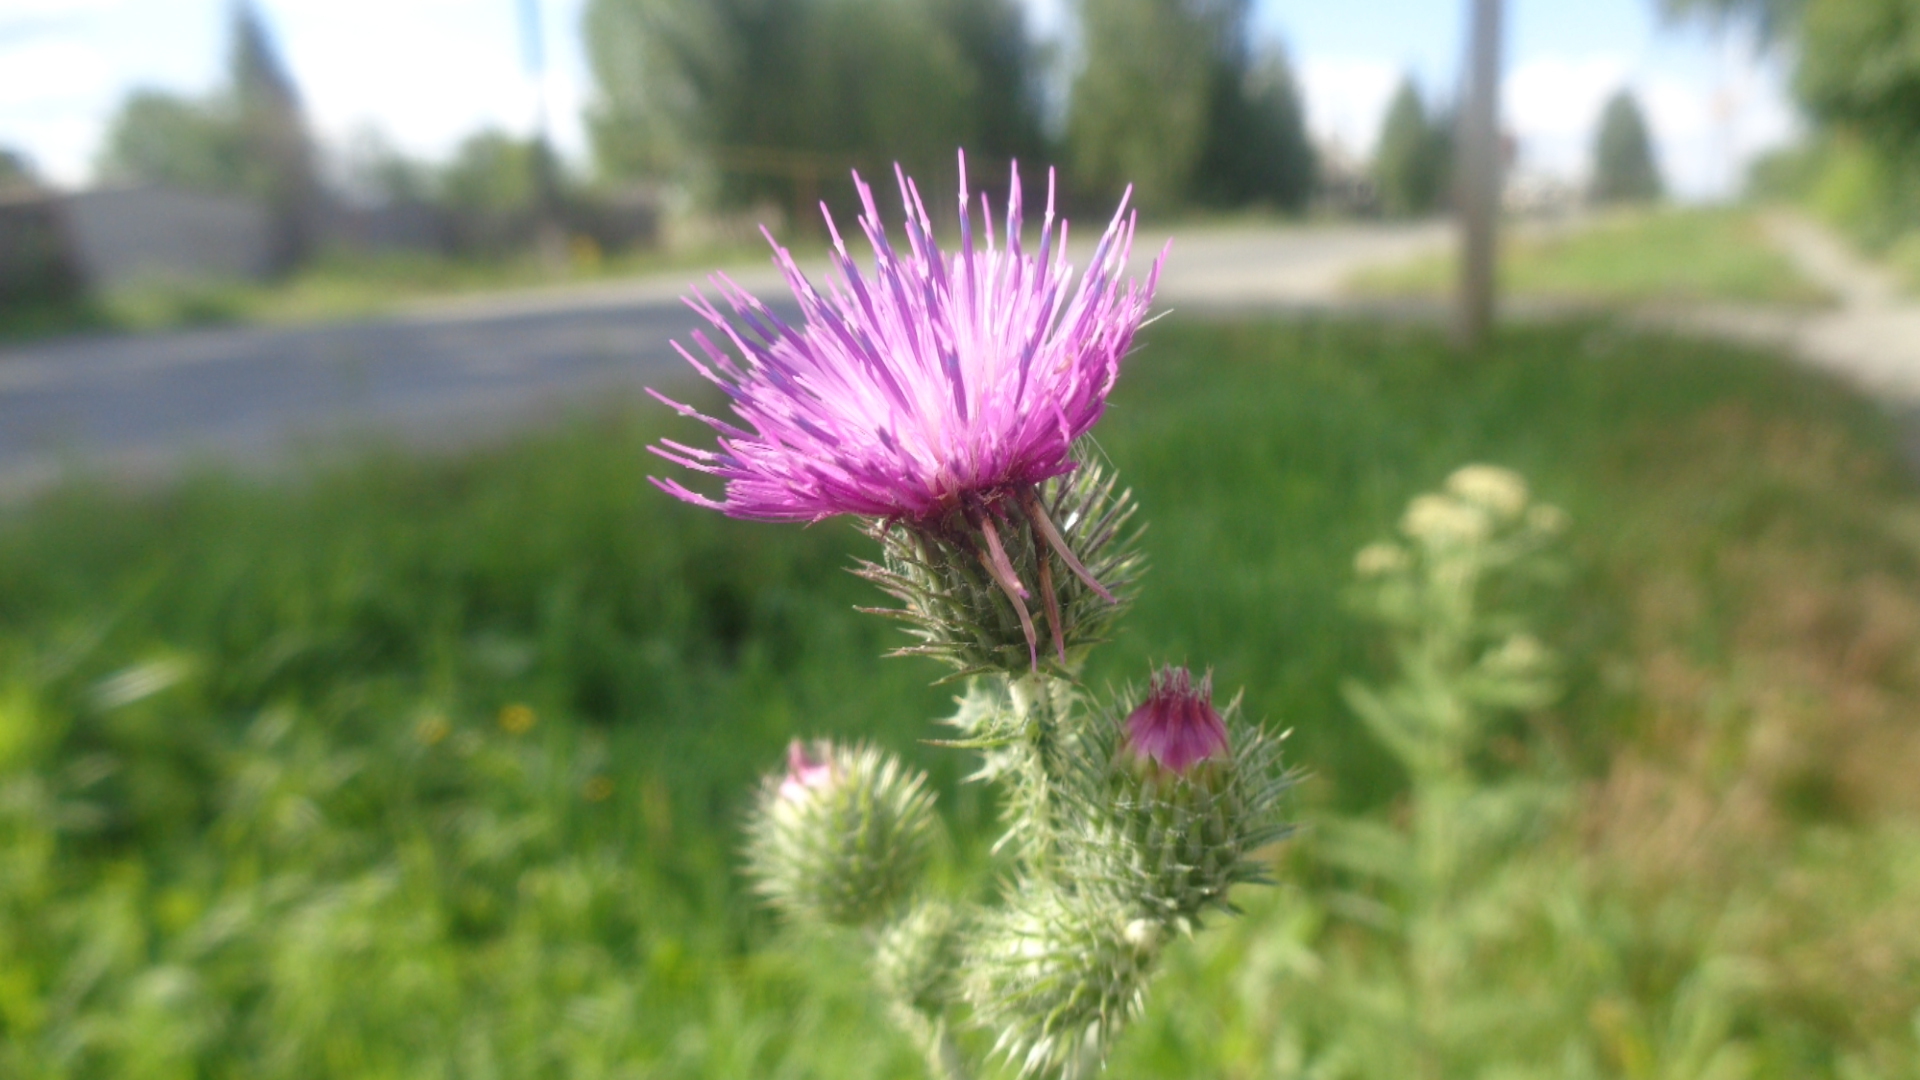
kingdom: Plantae
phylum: Tracheophyta
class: Magnoliopsida
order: Asterales
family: Asteraceae
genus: Carduus
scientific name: Carduus crispus
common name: Welted thistle
